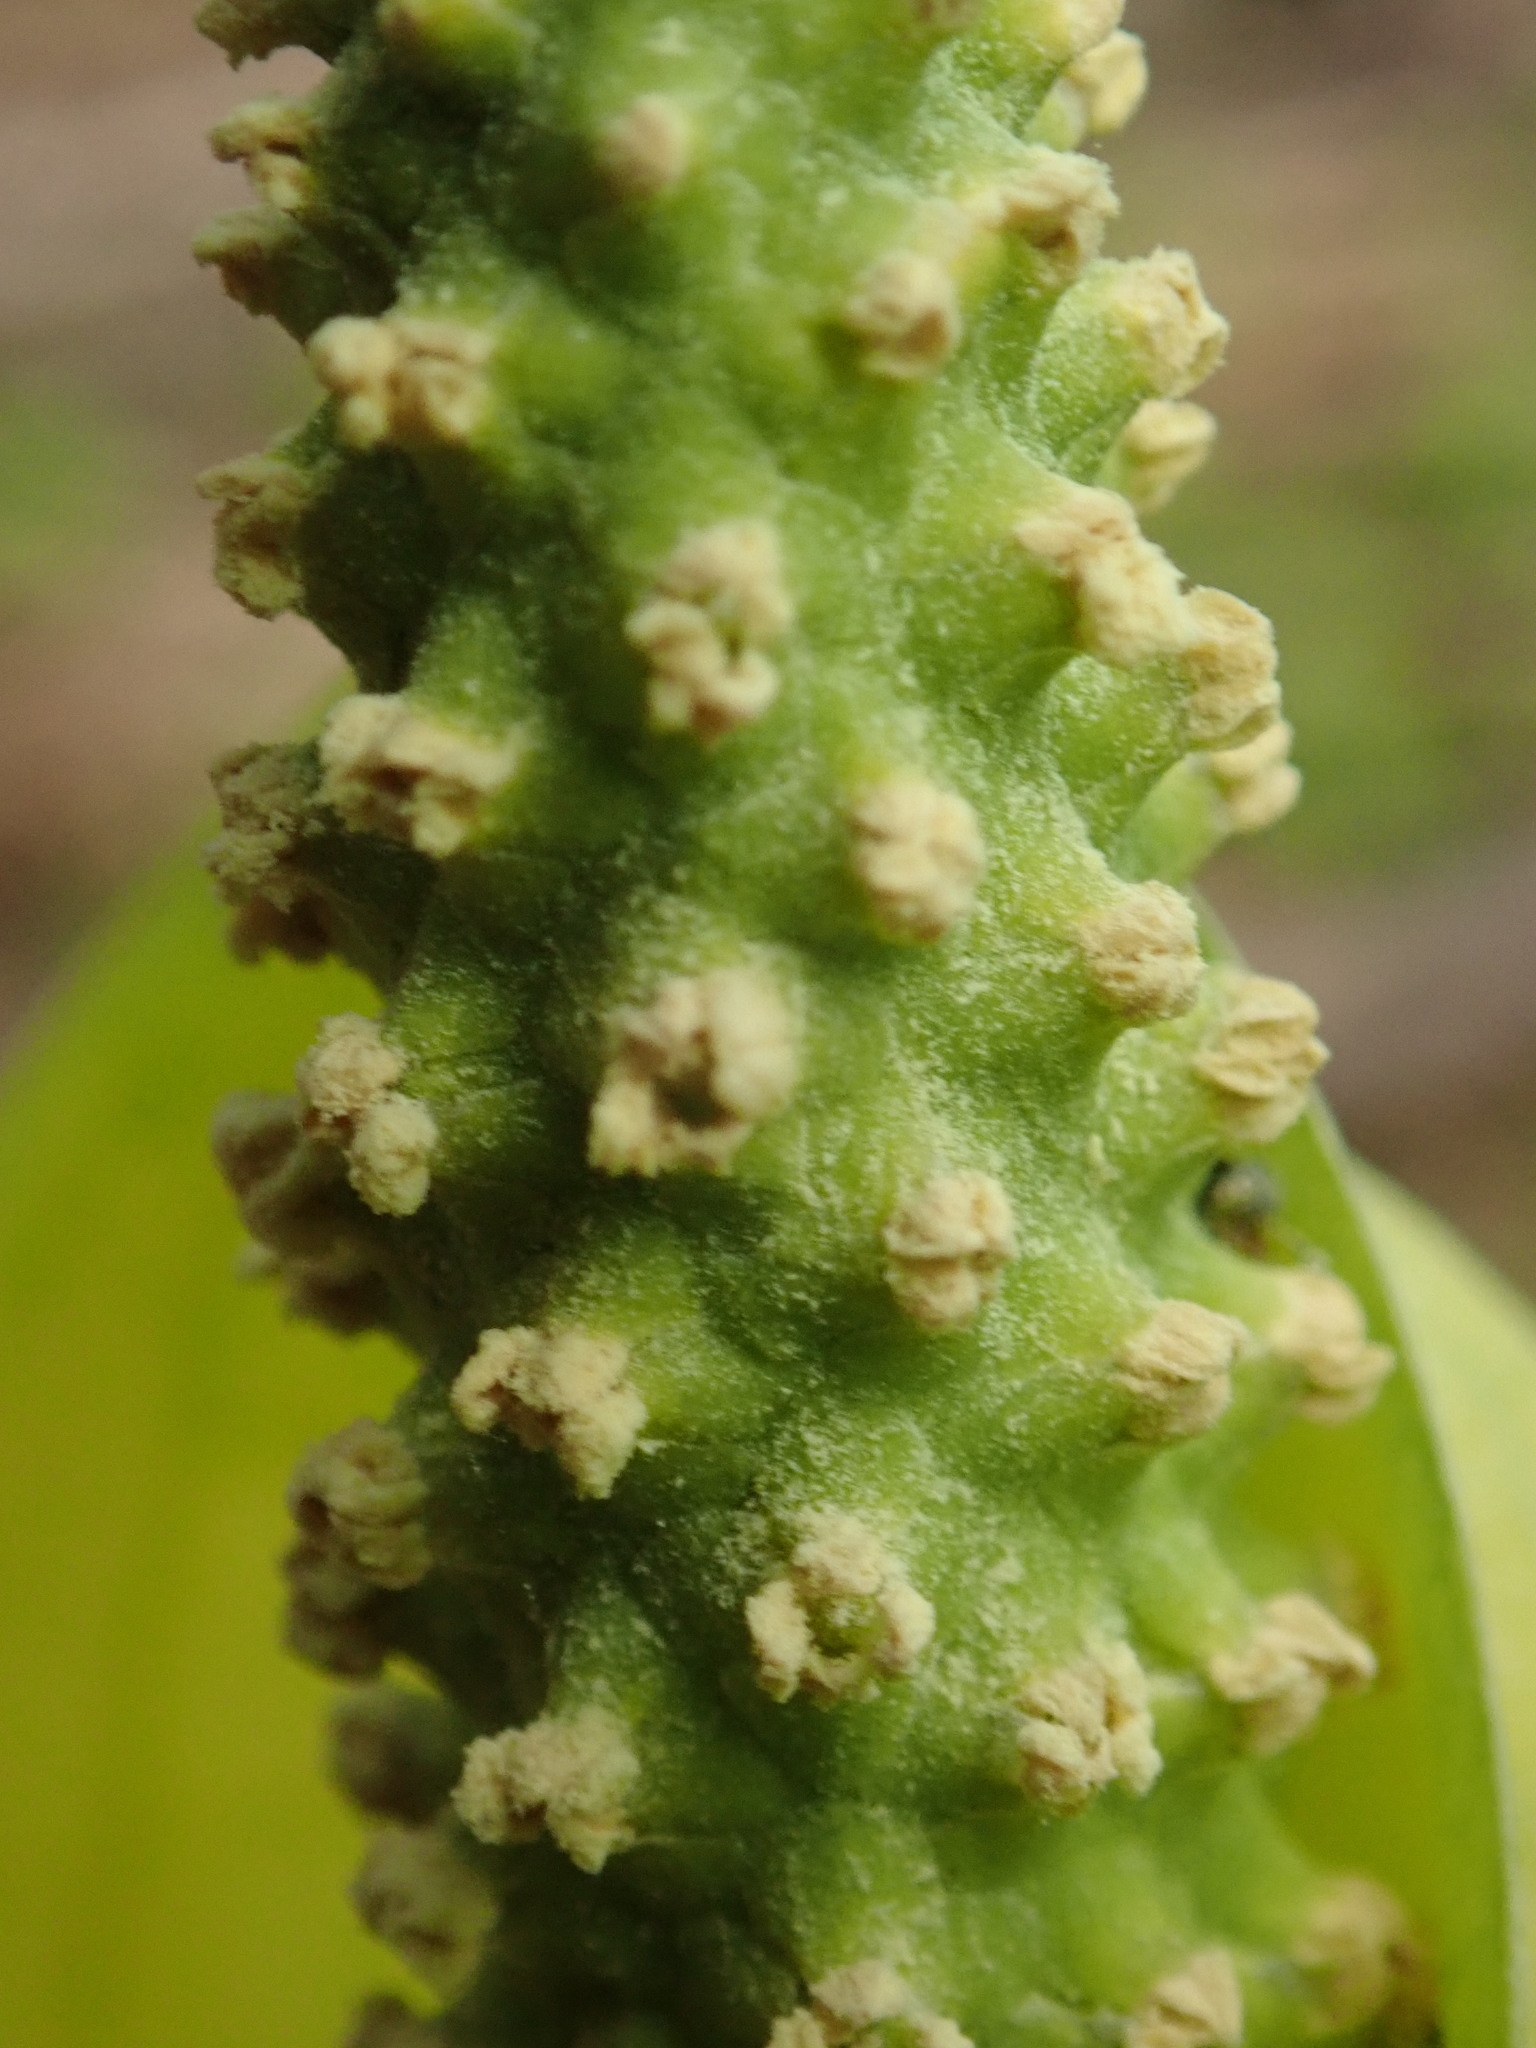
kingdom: Plantae
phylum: Tracheophyta
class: Liliopsida
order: Alismatales
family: Araceae
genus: Lysichiton
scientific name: Lysichiton americanus
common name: American skunk cabbage
